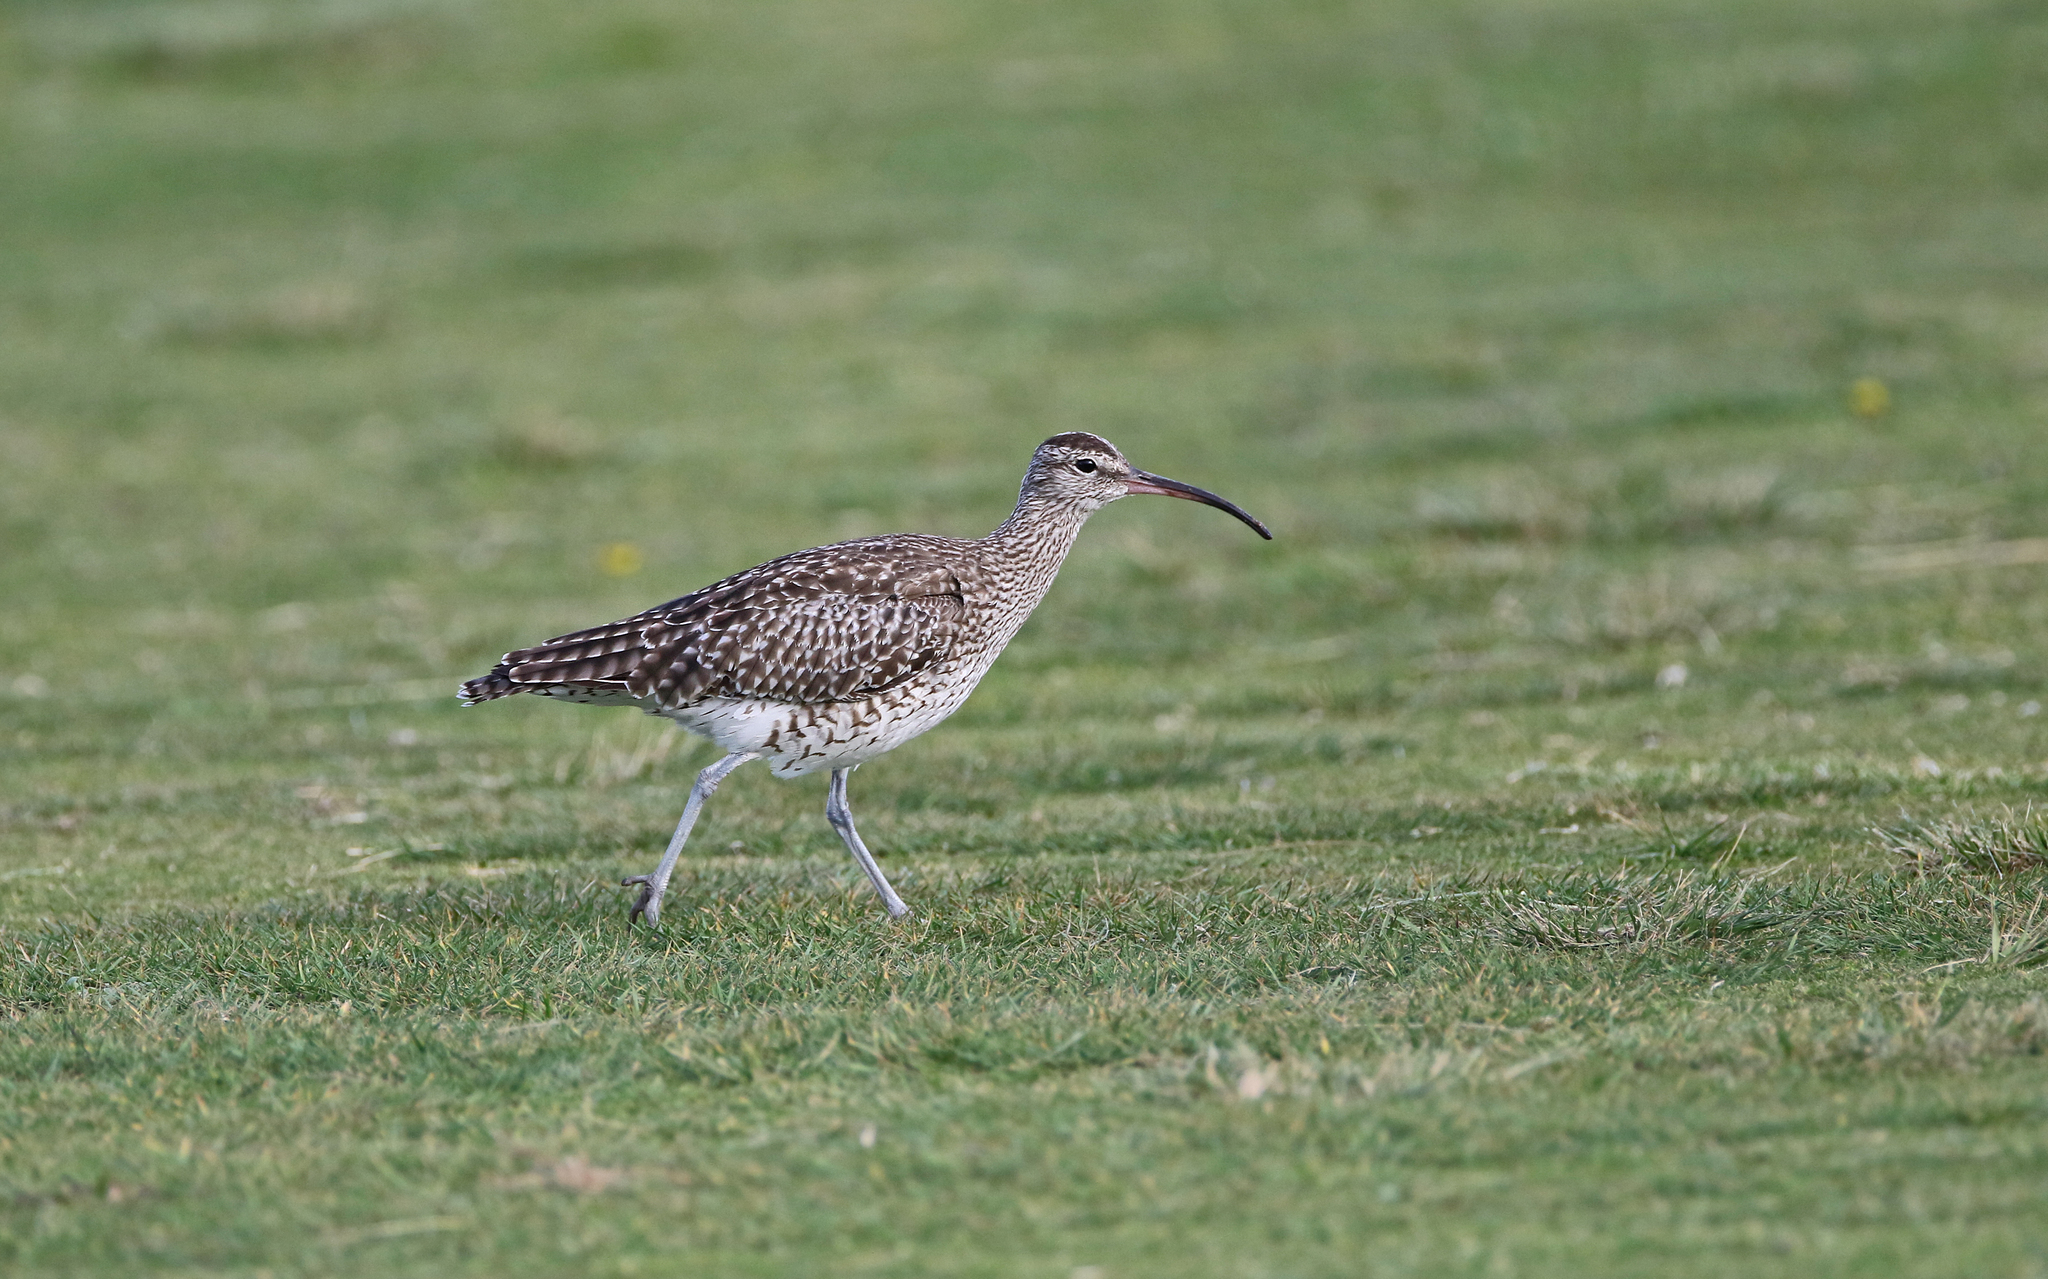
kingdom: Animalia
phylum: Chordata
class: Aves
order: Charadriiformes
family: Scolopacidae
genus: Numenius
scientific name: Numenius phaeopus
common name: Whimbrel
